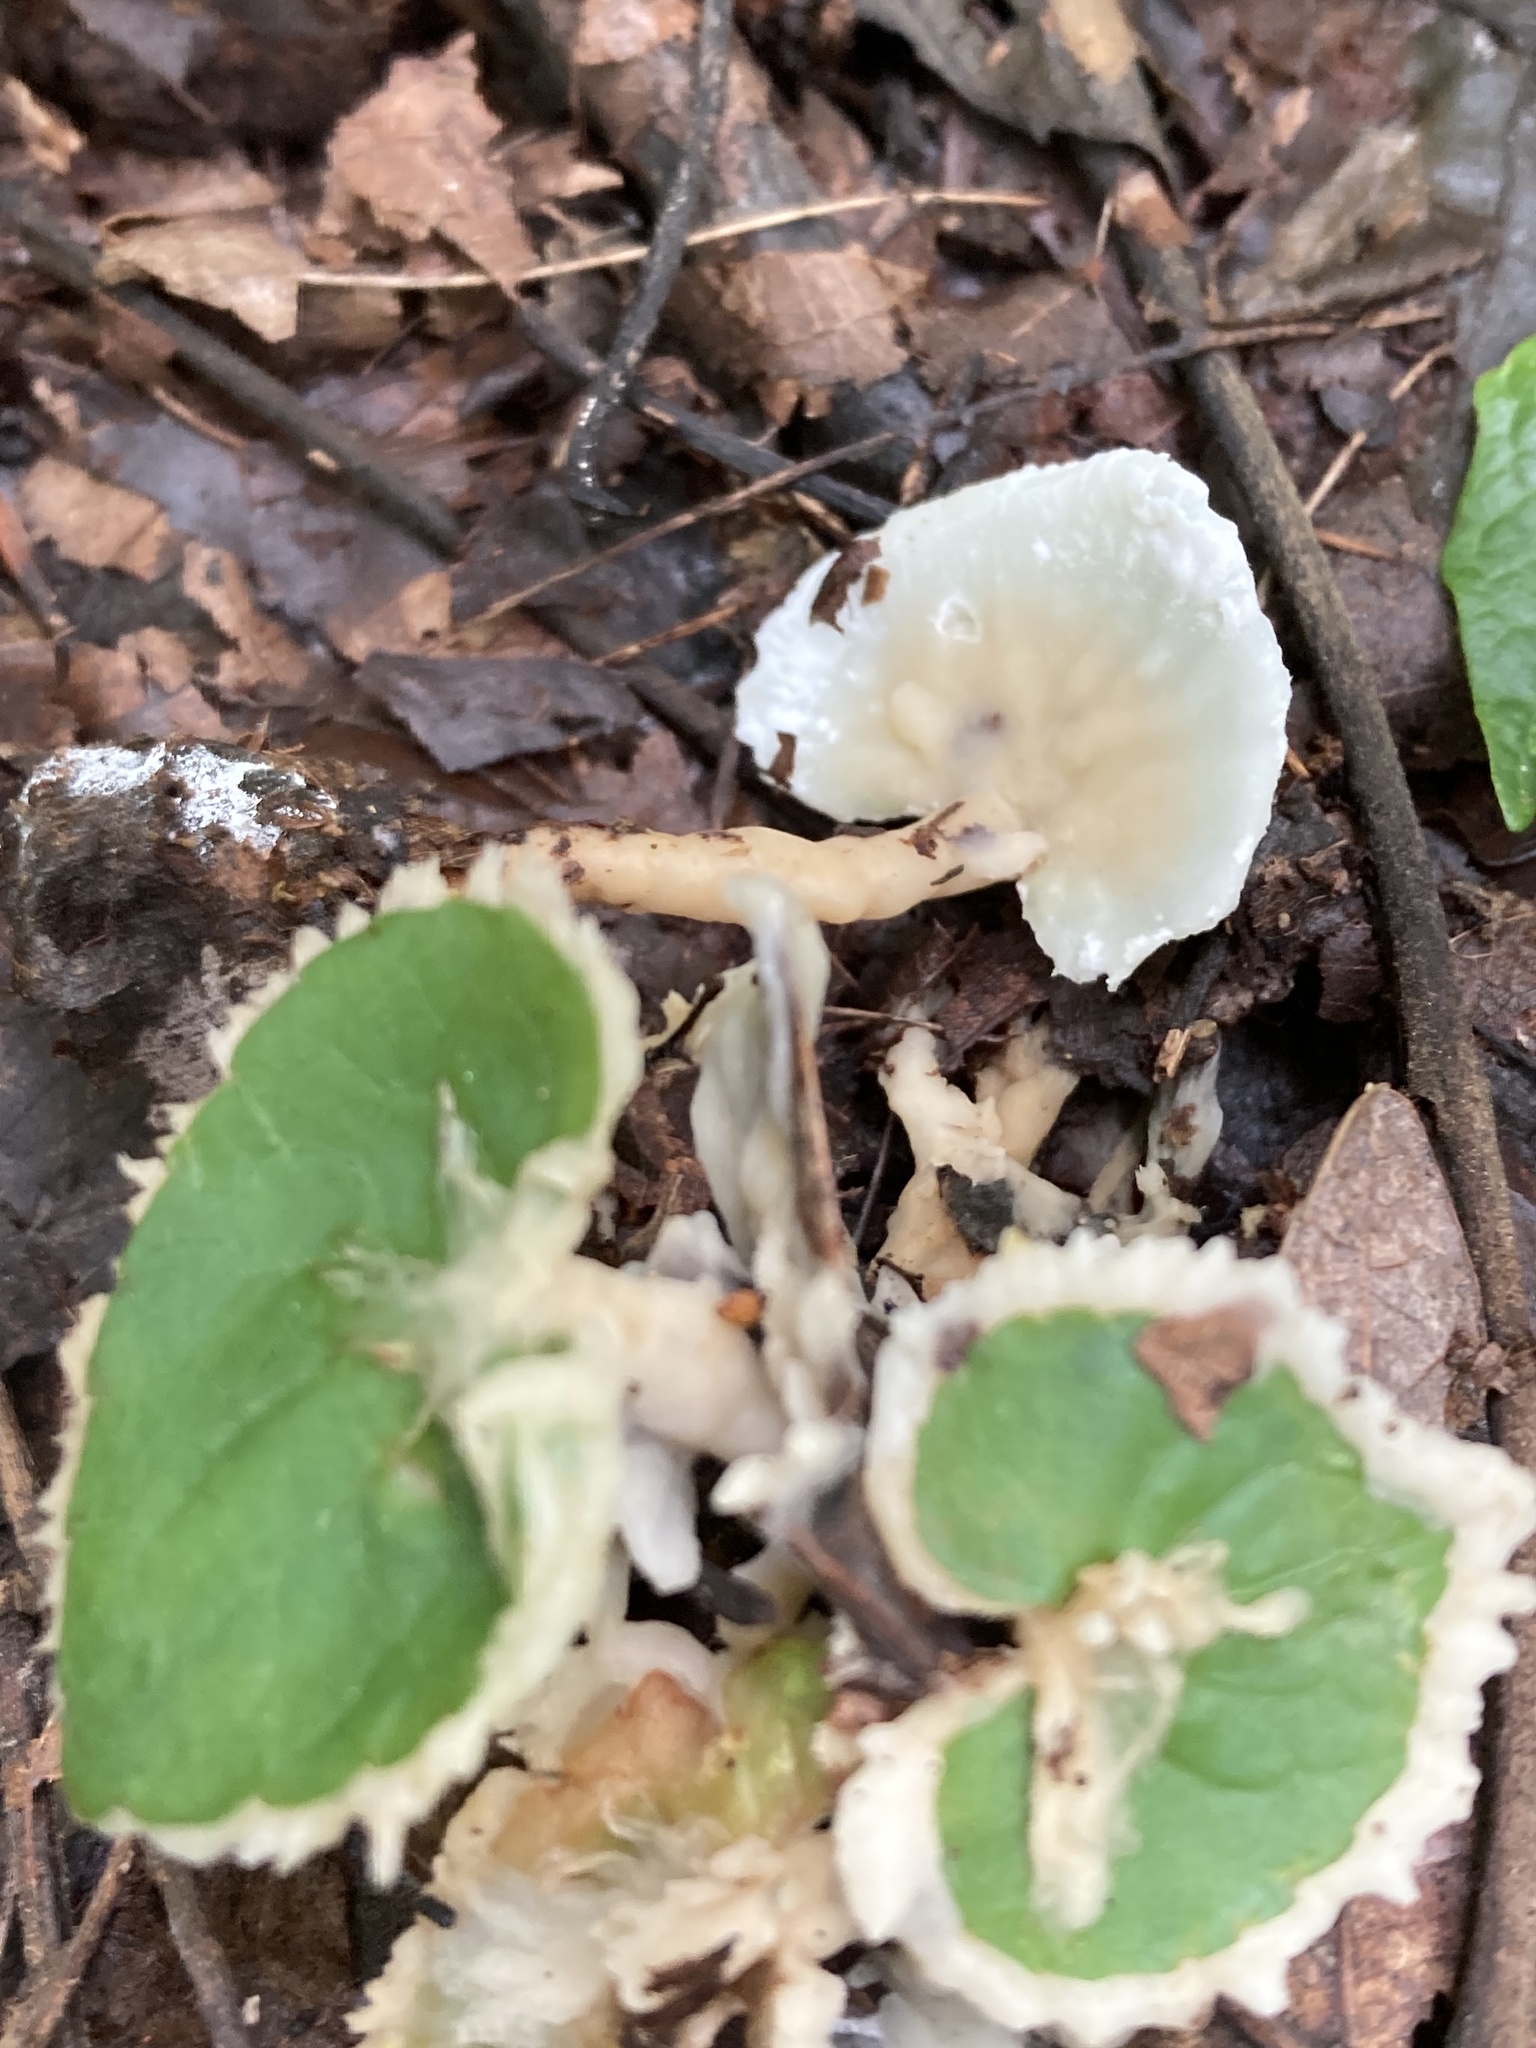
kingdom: Fungi
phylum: Basidiomycota
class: Agaricomycetes
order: Sebacinales
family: Sebacinaceae
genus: Sebacina
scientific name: Sebacina incrustans
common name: Enveloping crust
